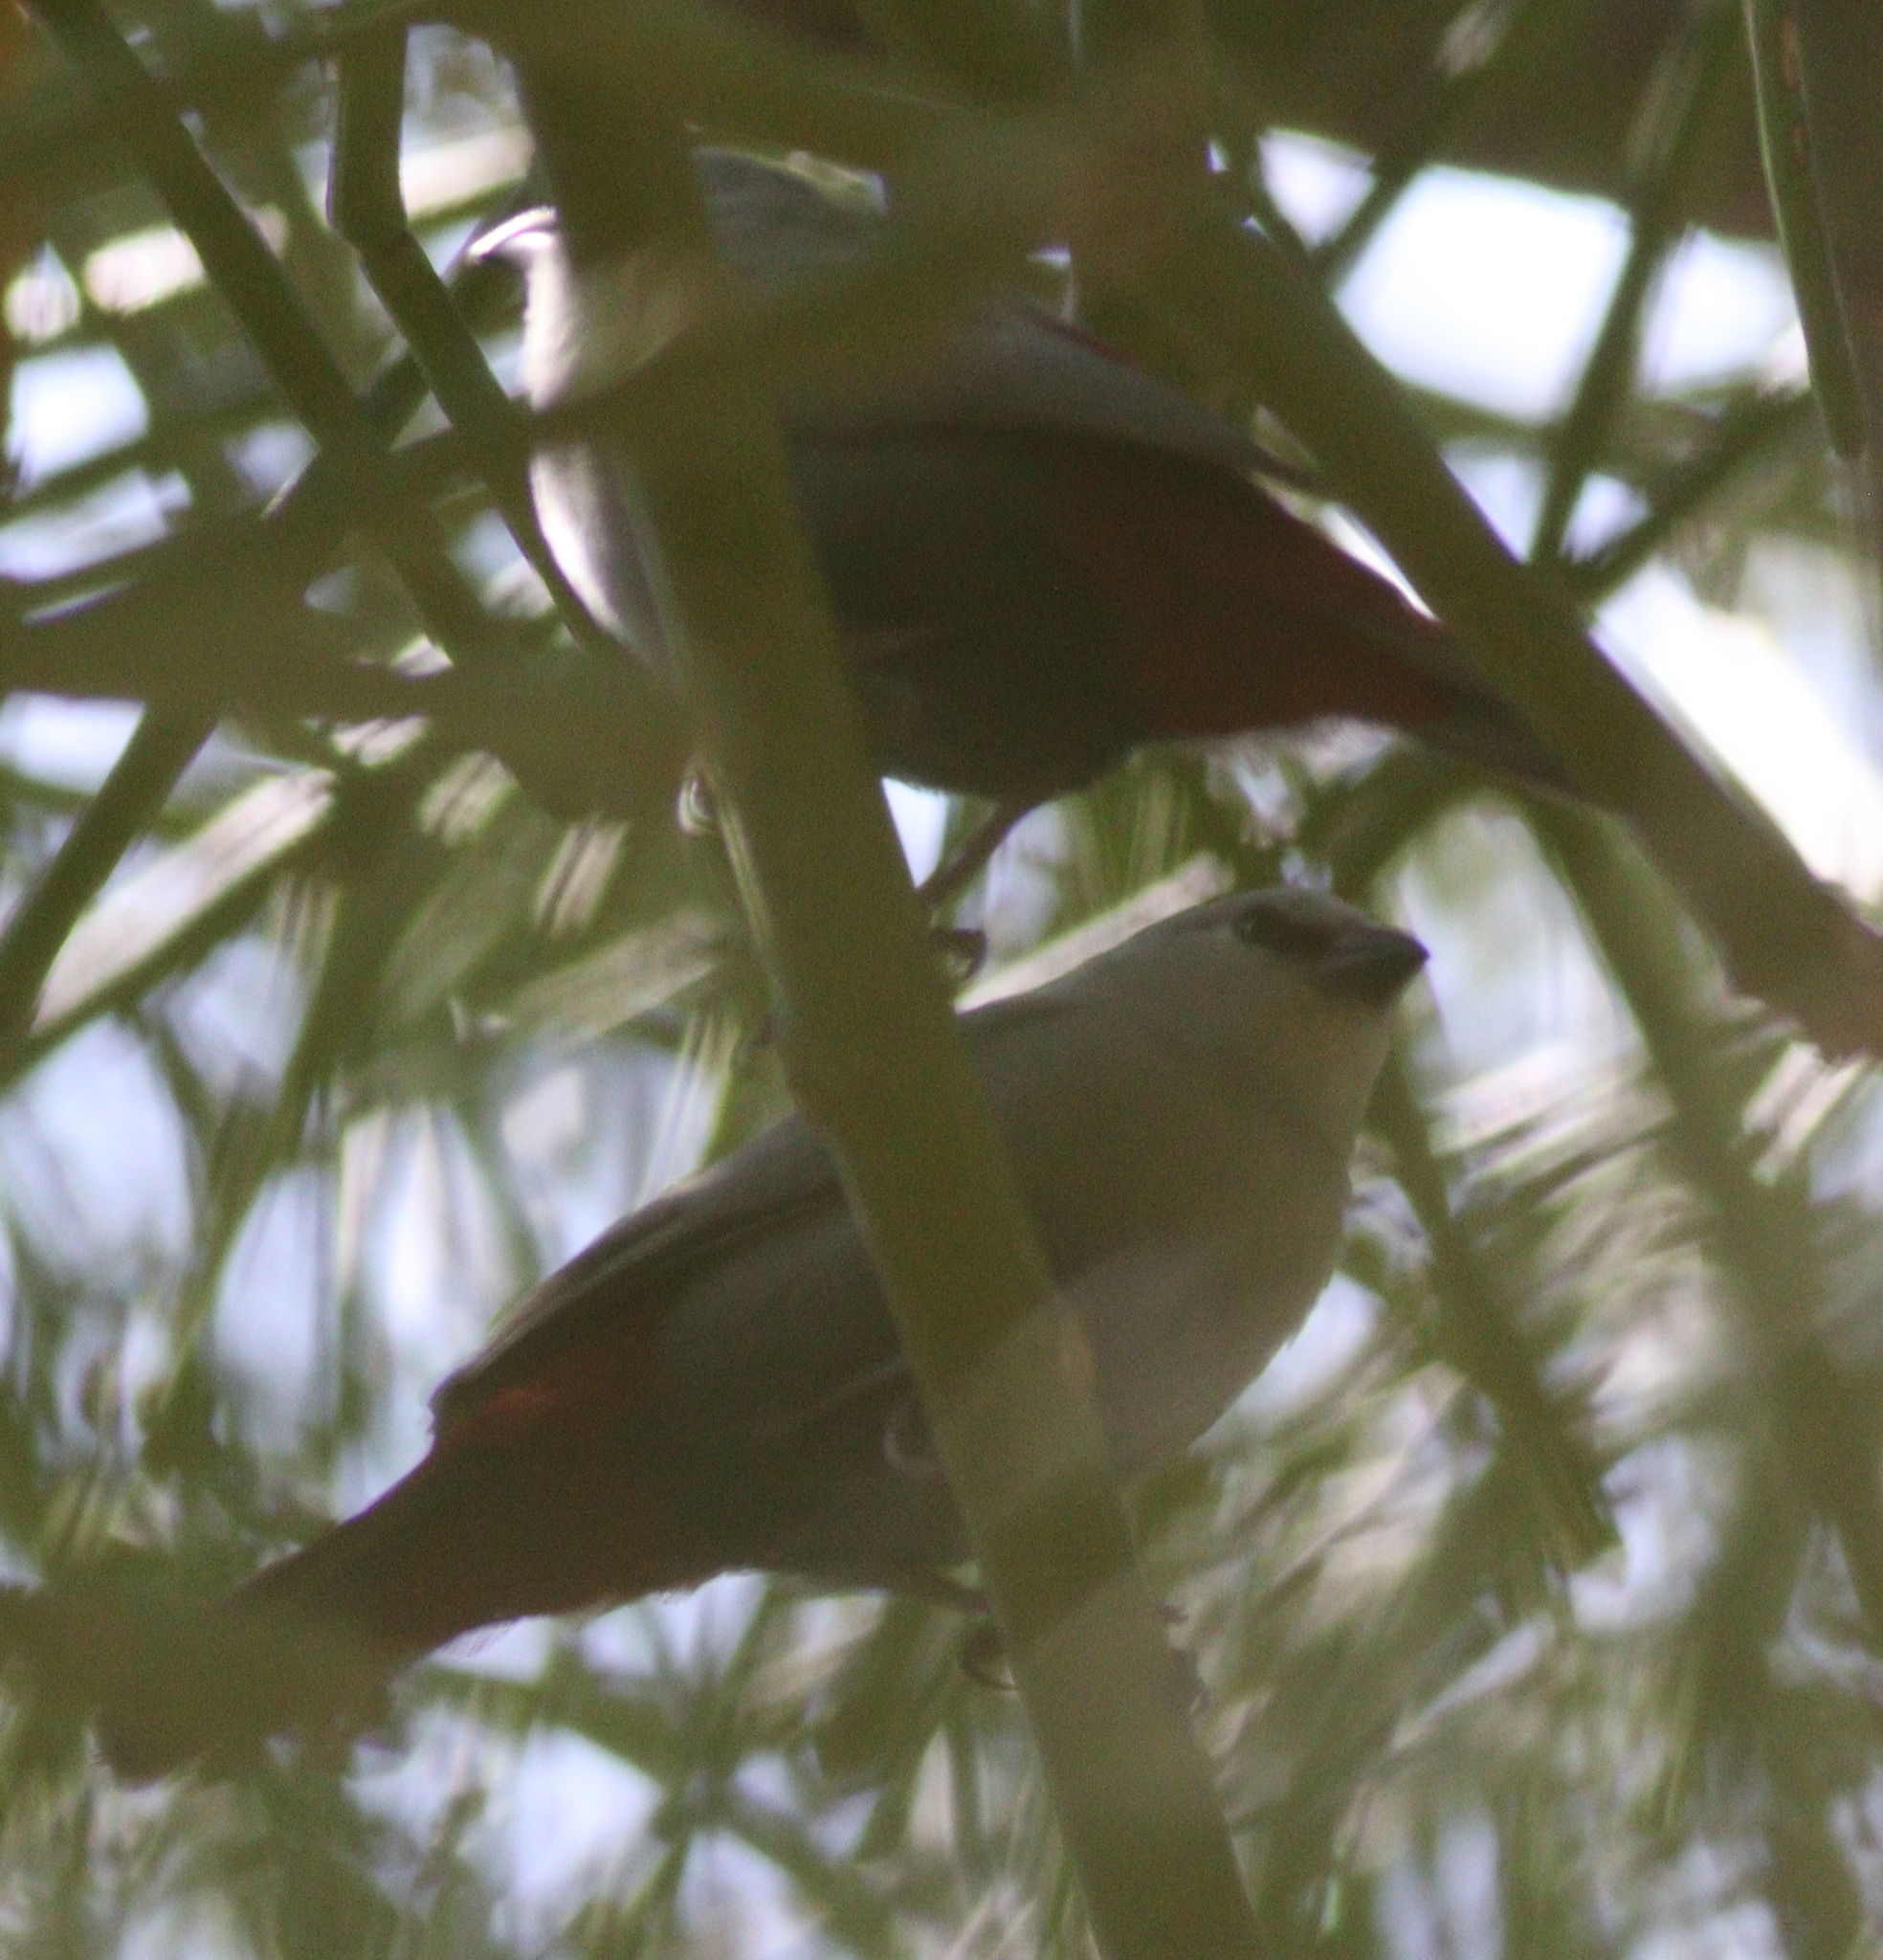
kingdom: Animalia
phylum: Chordata
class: Aves
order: Passeriformes
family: Estrildidae
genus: Estrilda
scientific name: Estrilda caerulescens
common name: Lavender waxbill
